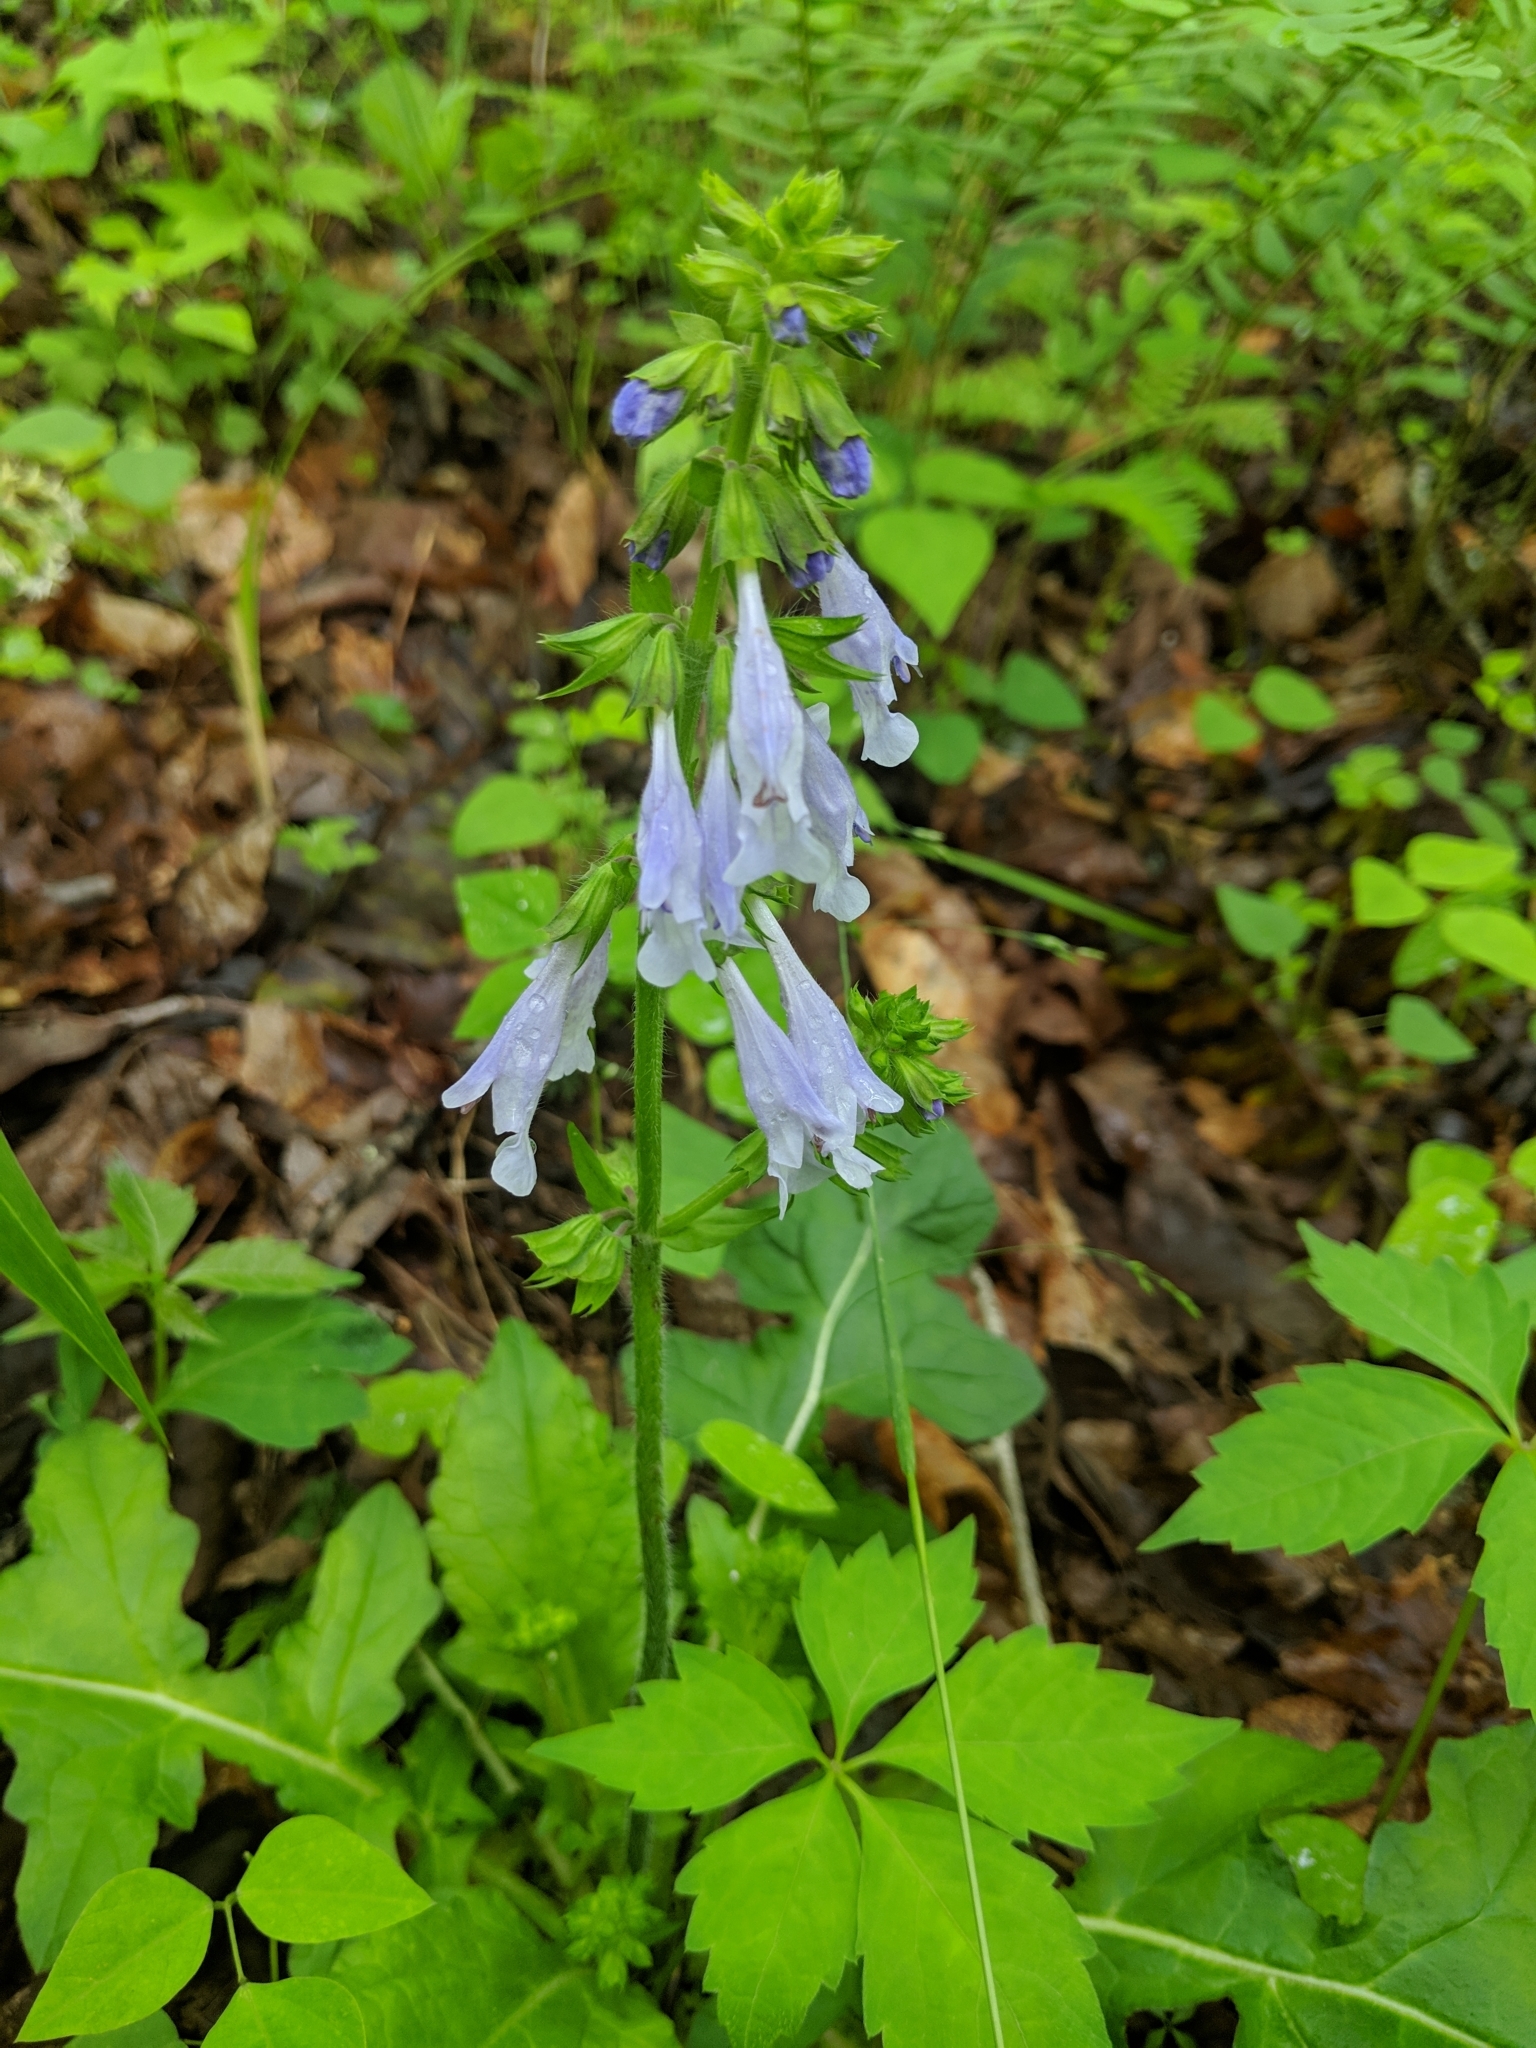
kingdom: Plantae
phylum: Tracheophyta
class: Magnoliopsida
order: Lamiales
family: Lamiaceae
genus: Salvia
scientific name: Salvia lyrata
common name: Cancerweed
